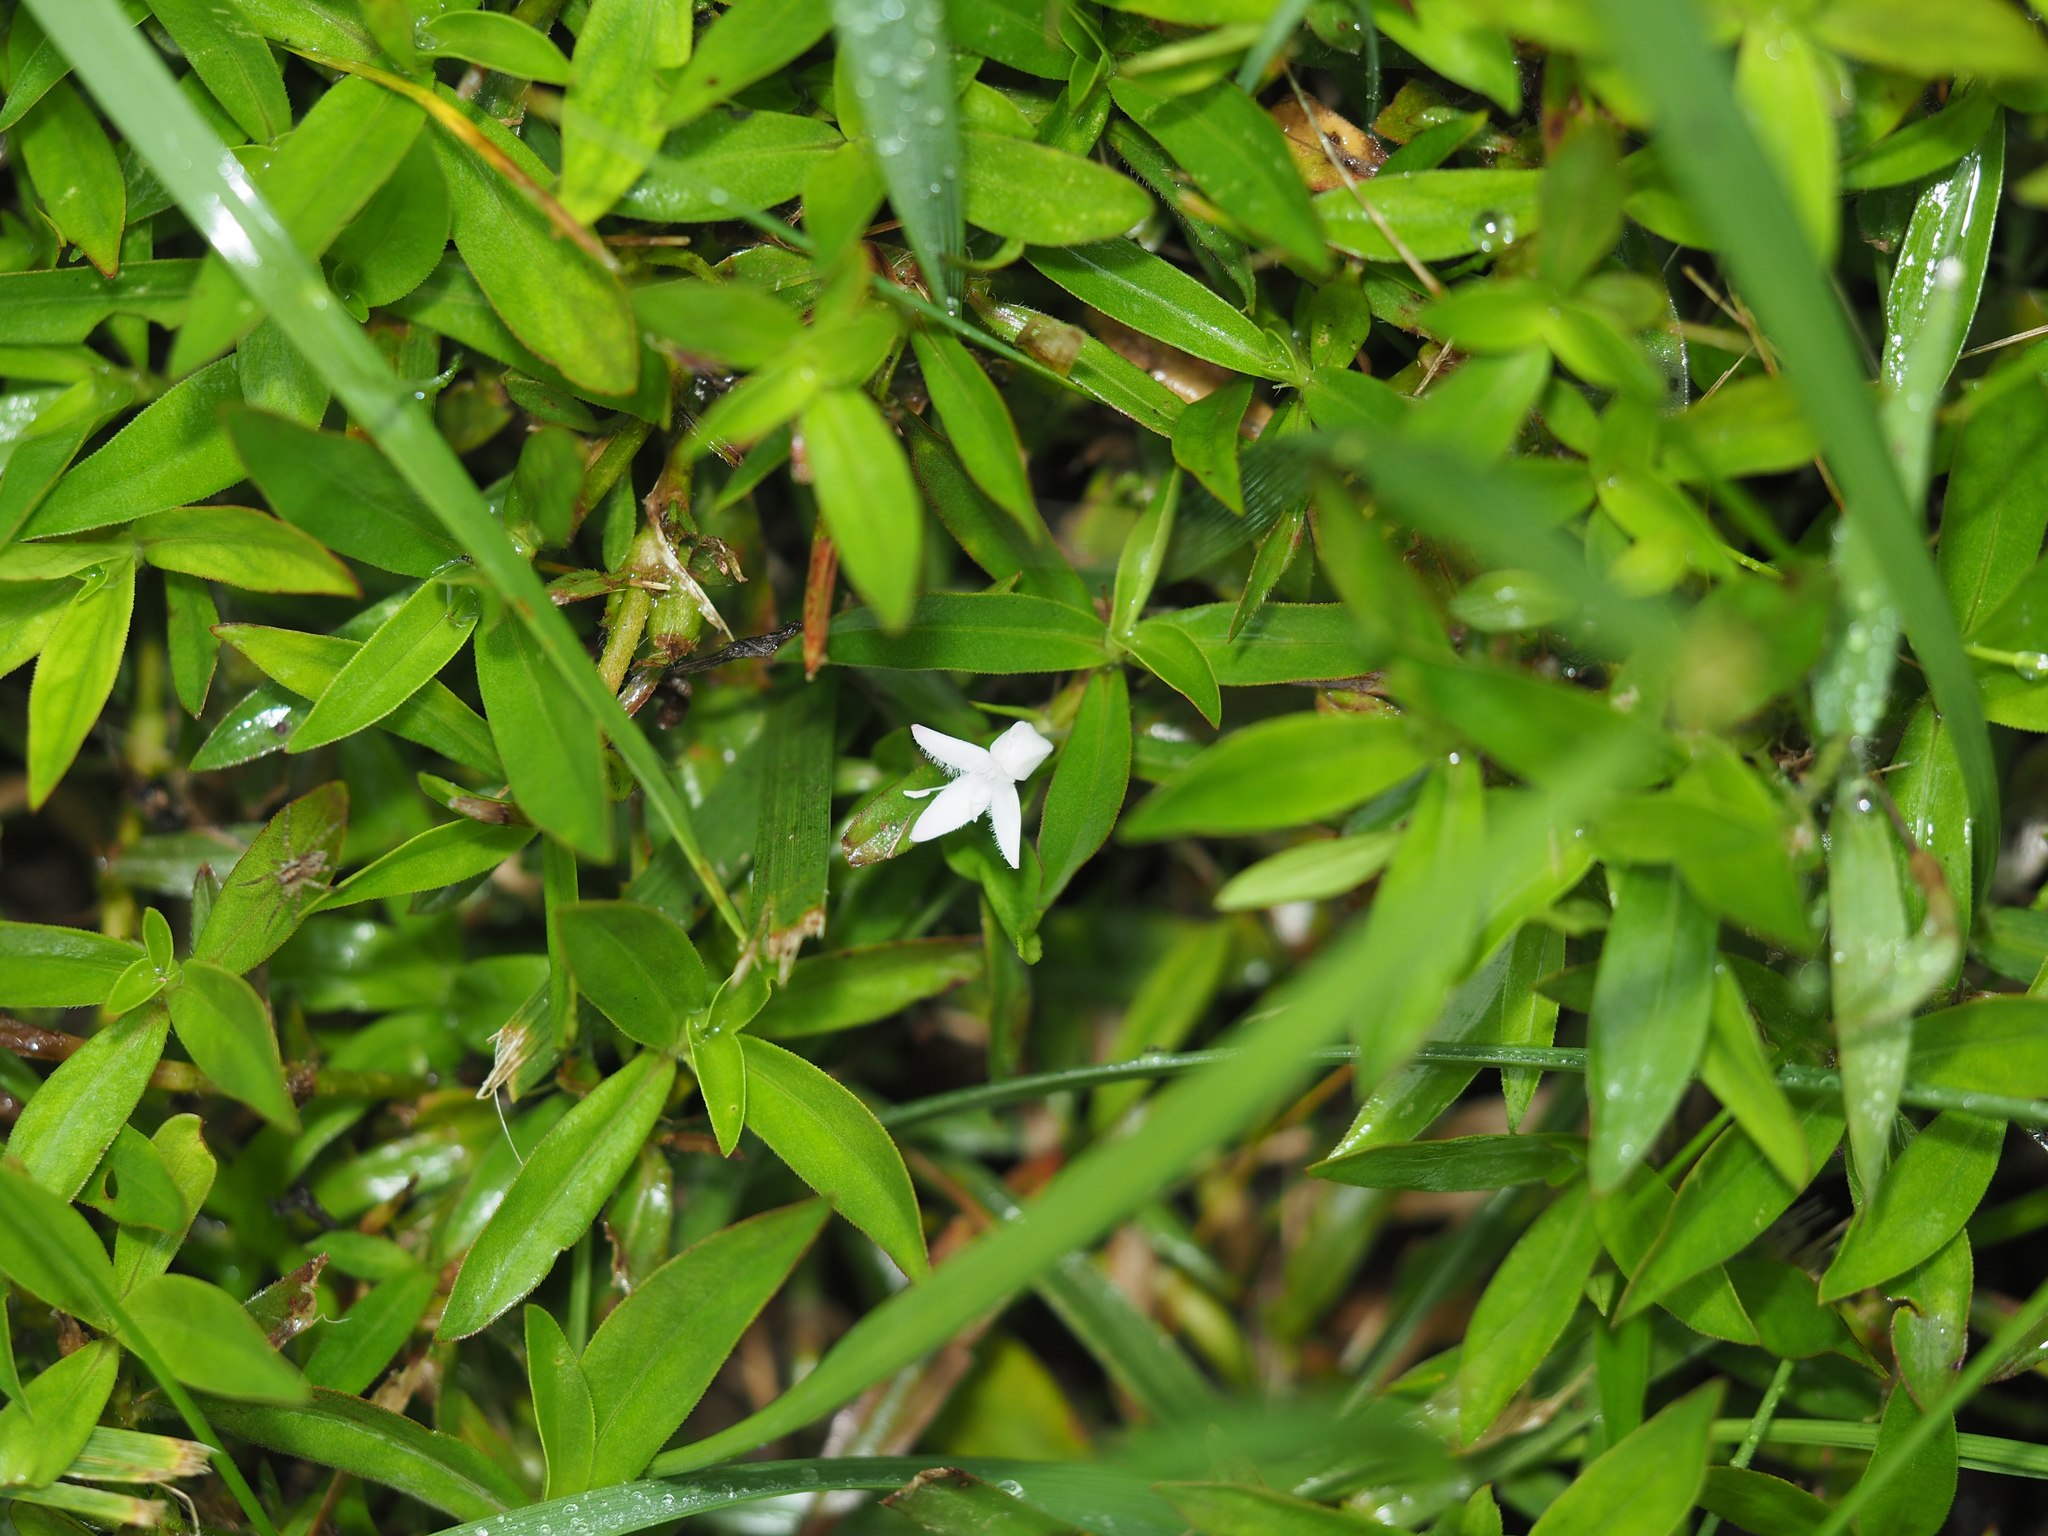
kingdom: Plantae
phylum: Tracheophyta
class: Magnoliopsida
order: Gentianales
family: Rubiaceae
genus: Diodia
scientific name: Diodia virginiana
